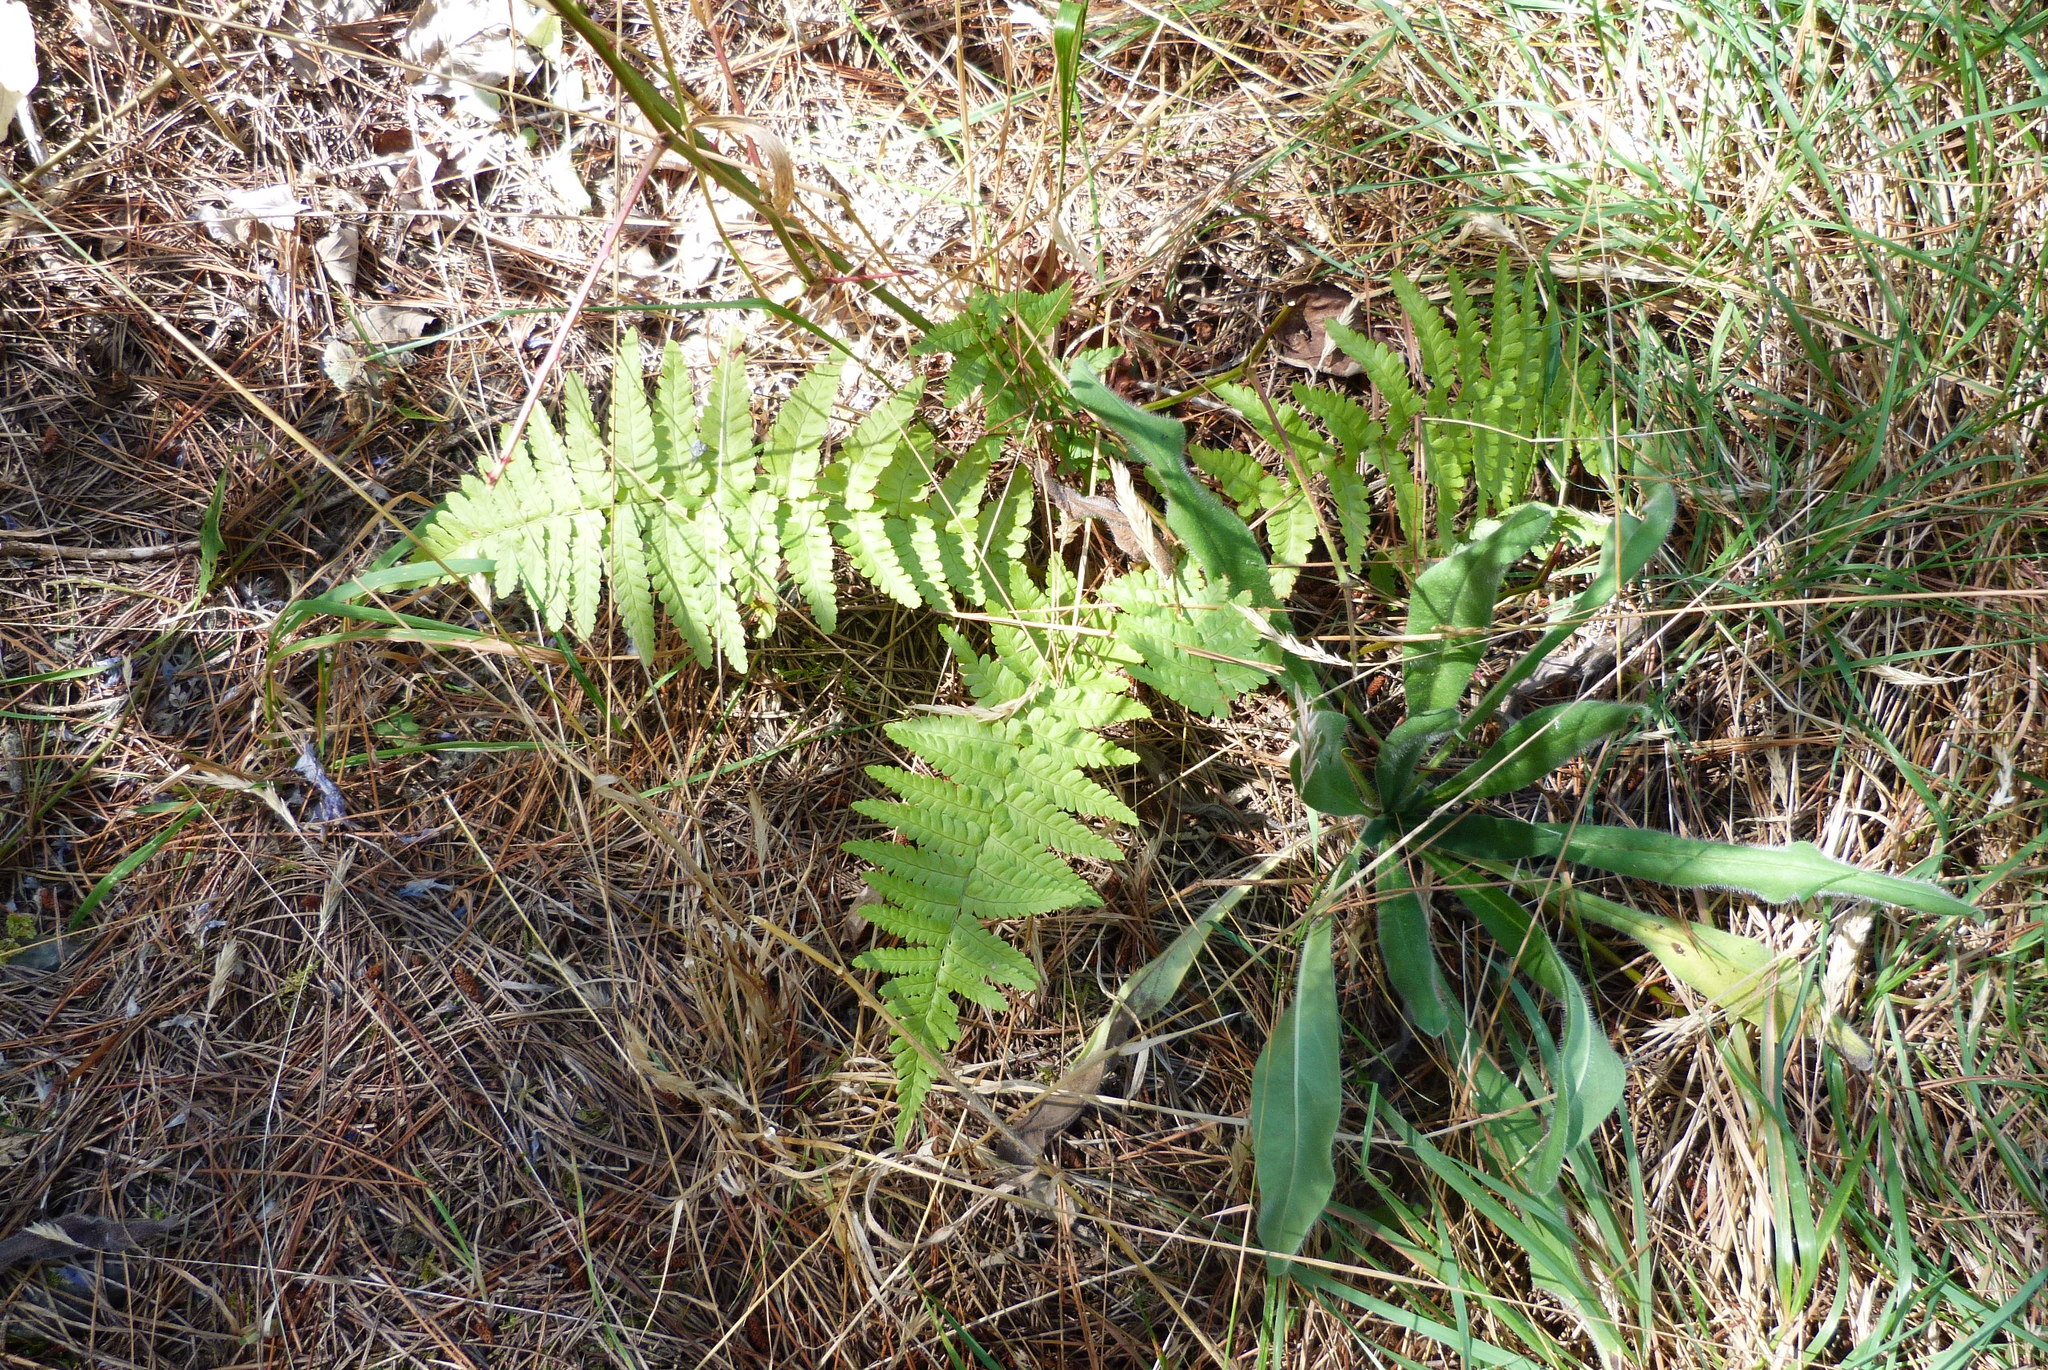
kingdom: Plantae
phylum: Tracheophyta
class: Polypodiopsida
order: Polypodiales
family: Dryopteridaceae
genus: Dryopteris
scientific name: Dryopteris filix-mas
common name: Male fern
